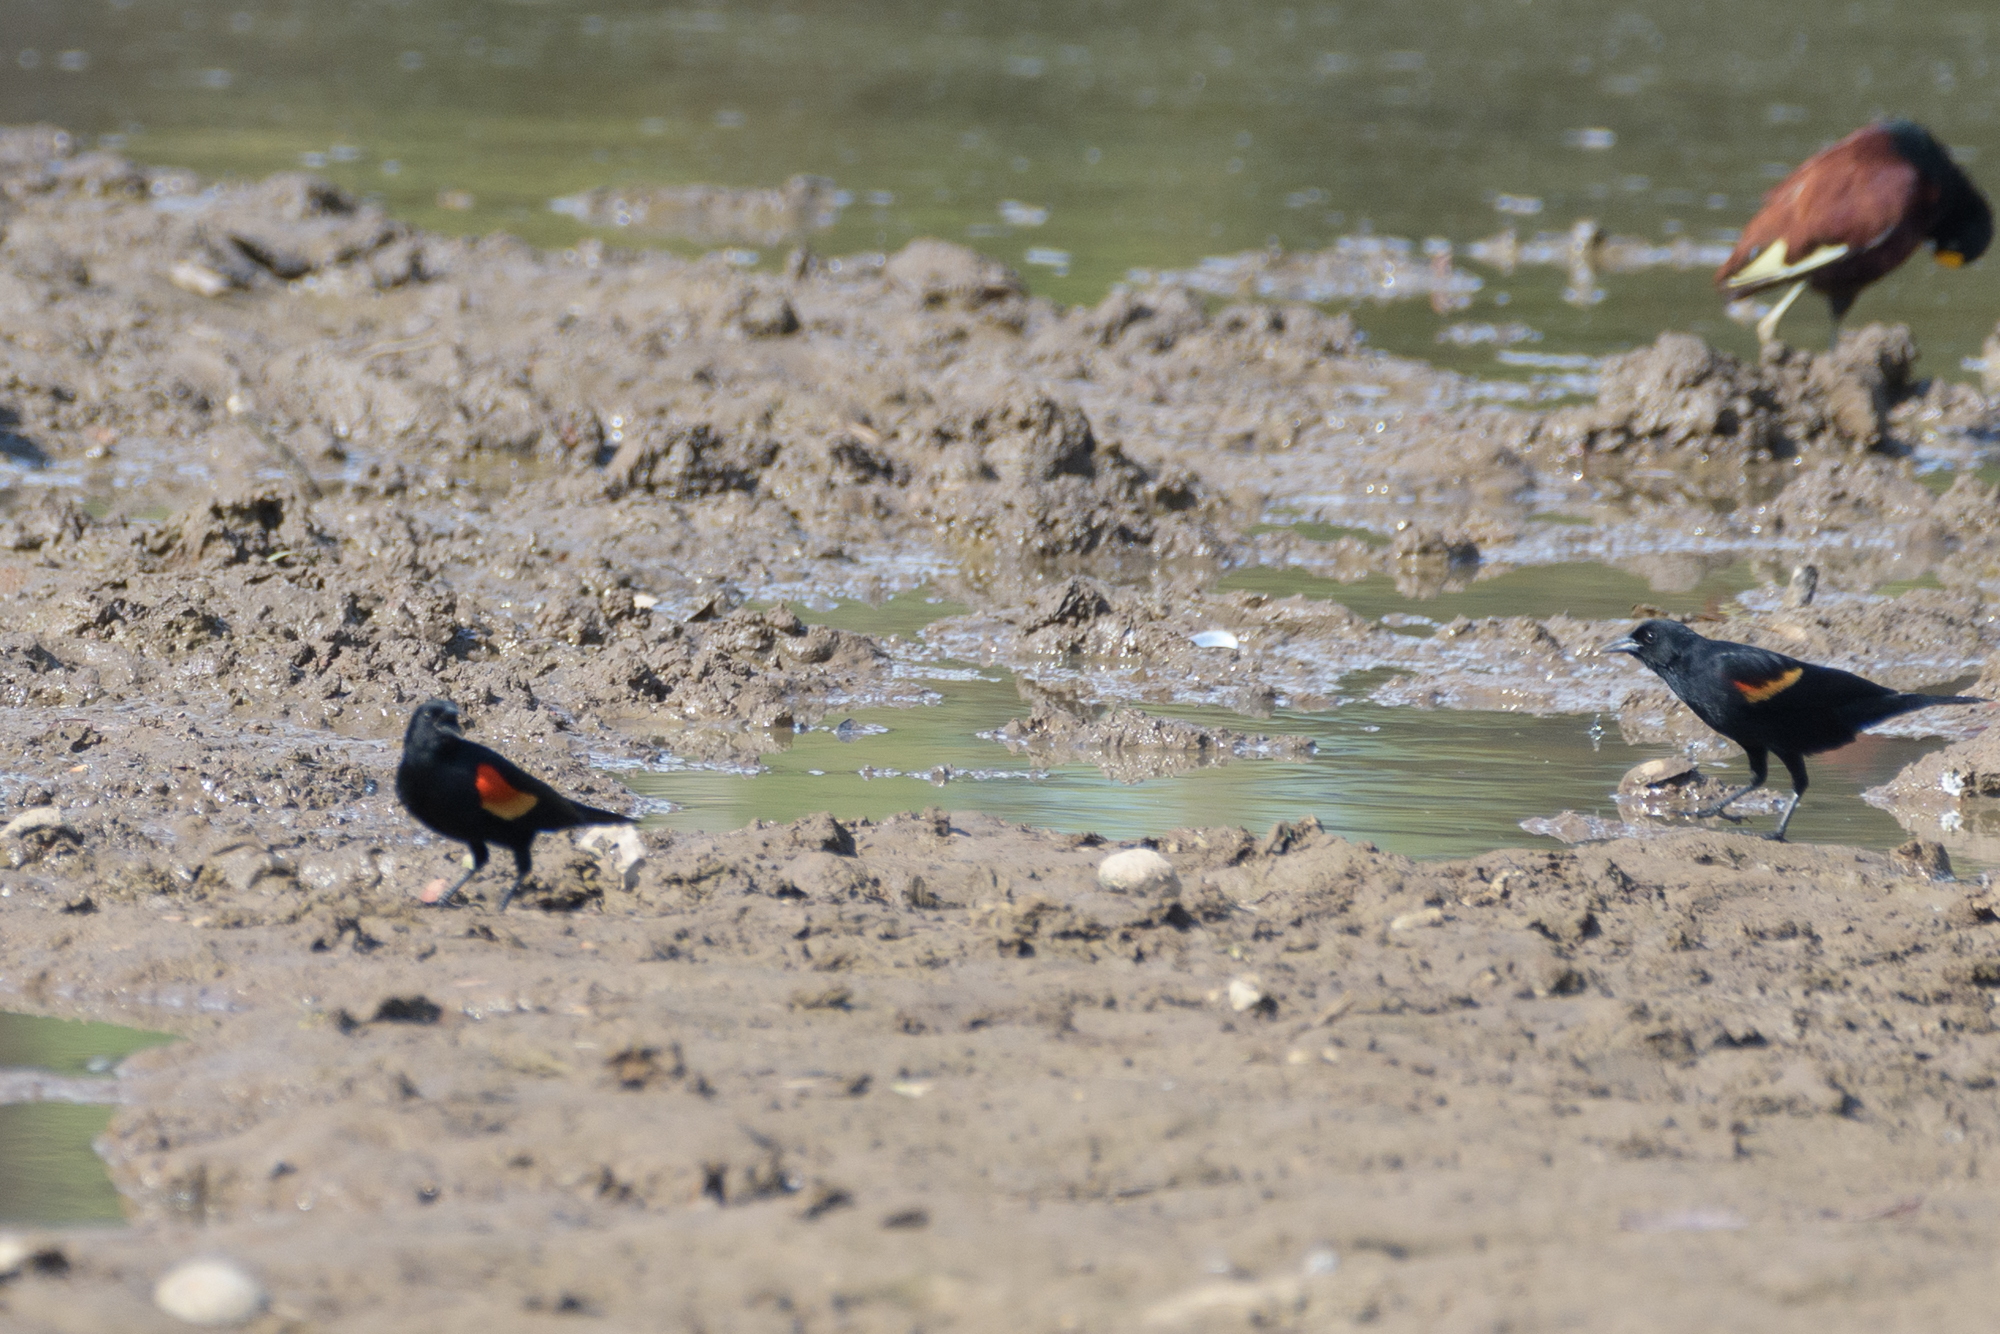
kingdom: Animalia
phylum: Chordata
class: Aves
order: Passeriformes
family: Icteridae
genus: Agelaius
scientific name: Agelaius phoeniceus
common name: Red-winged blackbird
